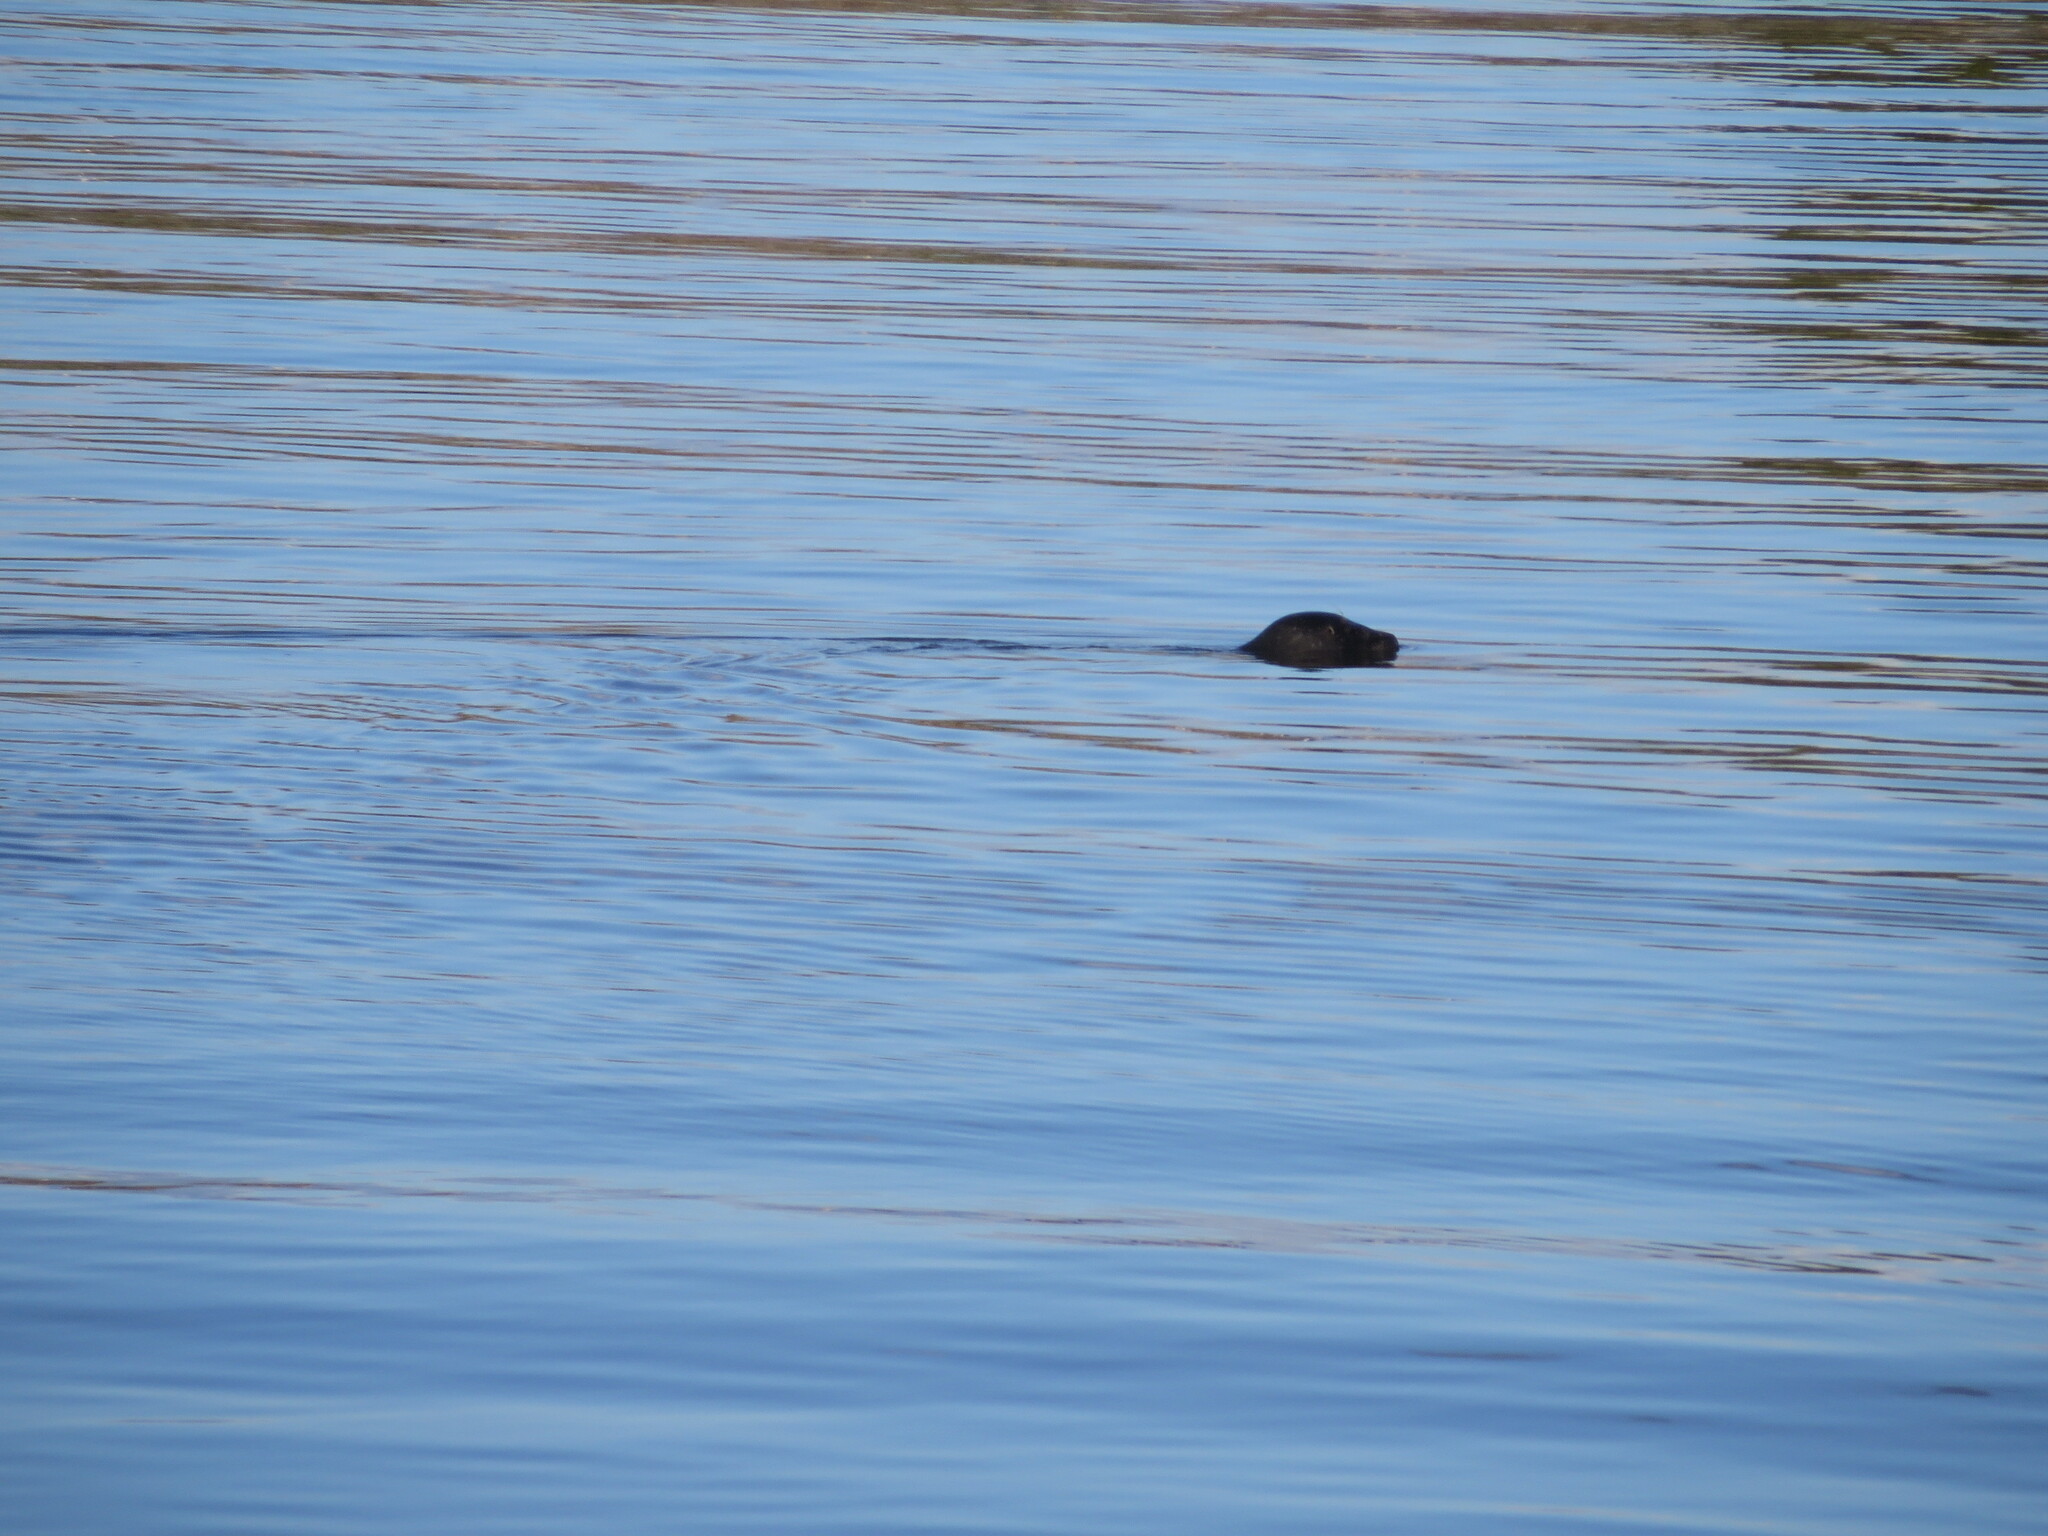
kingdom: Animalia
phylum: Chordata
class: Mammalia
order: Carnivora
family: Phocidae
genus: Phoca
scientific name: Phoca vitulina
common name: Harbor seal
